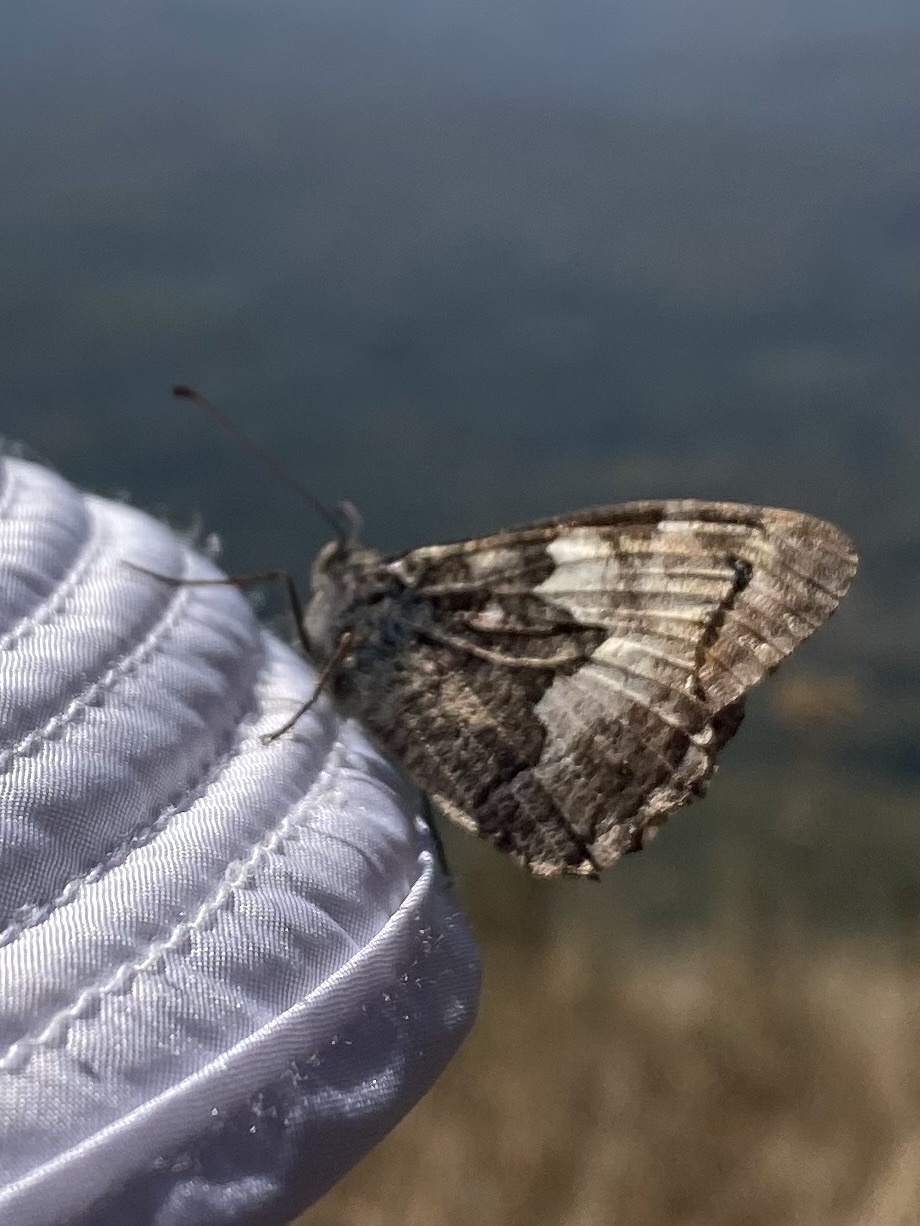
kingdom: Animalia
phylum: Arthropoda
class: Insecta
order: Lepidoptera
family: Nymphalidae
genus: Hipparchia
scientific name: Hipparchia pellucida
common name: Lesbos grayling
